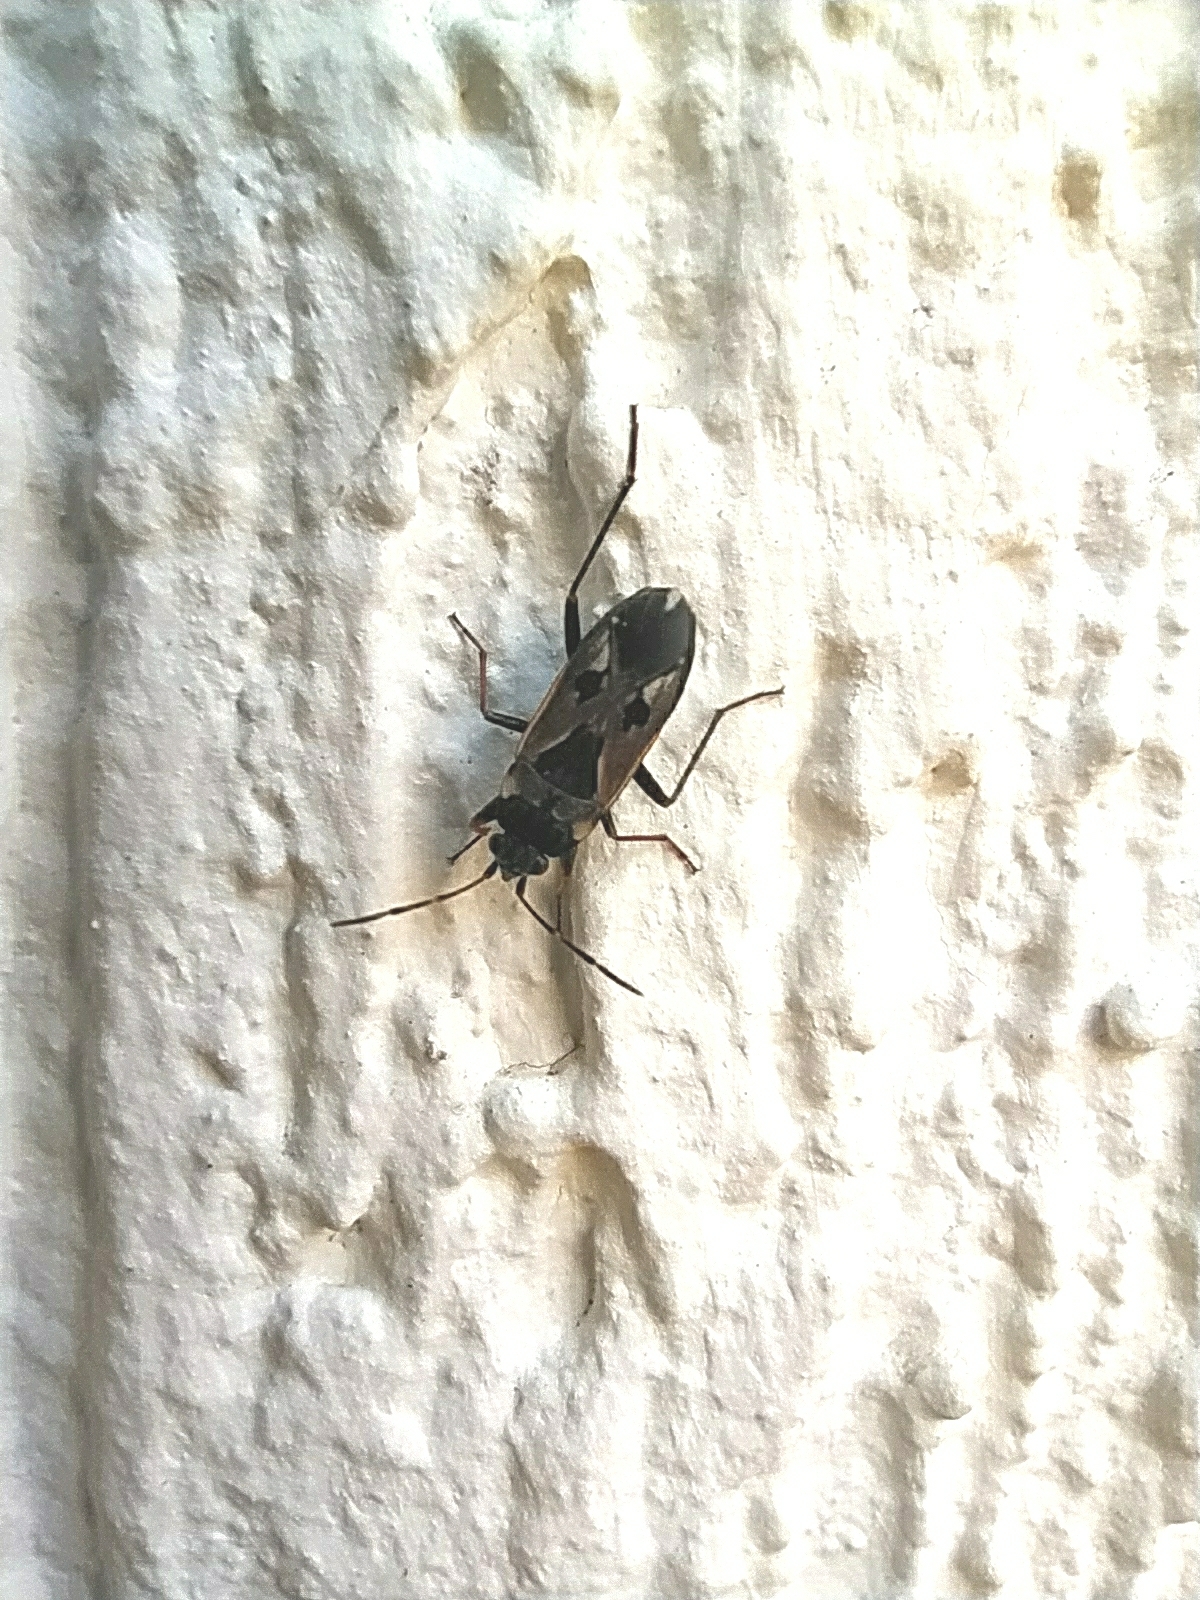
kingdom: Animalia
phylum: Arthropoda
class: Insecta
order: Hemiptera
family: Rhyparochromidae
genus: Rhyparochromus
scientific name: Rhyparochromus vulgaris
